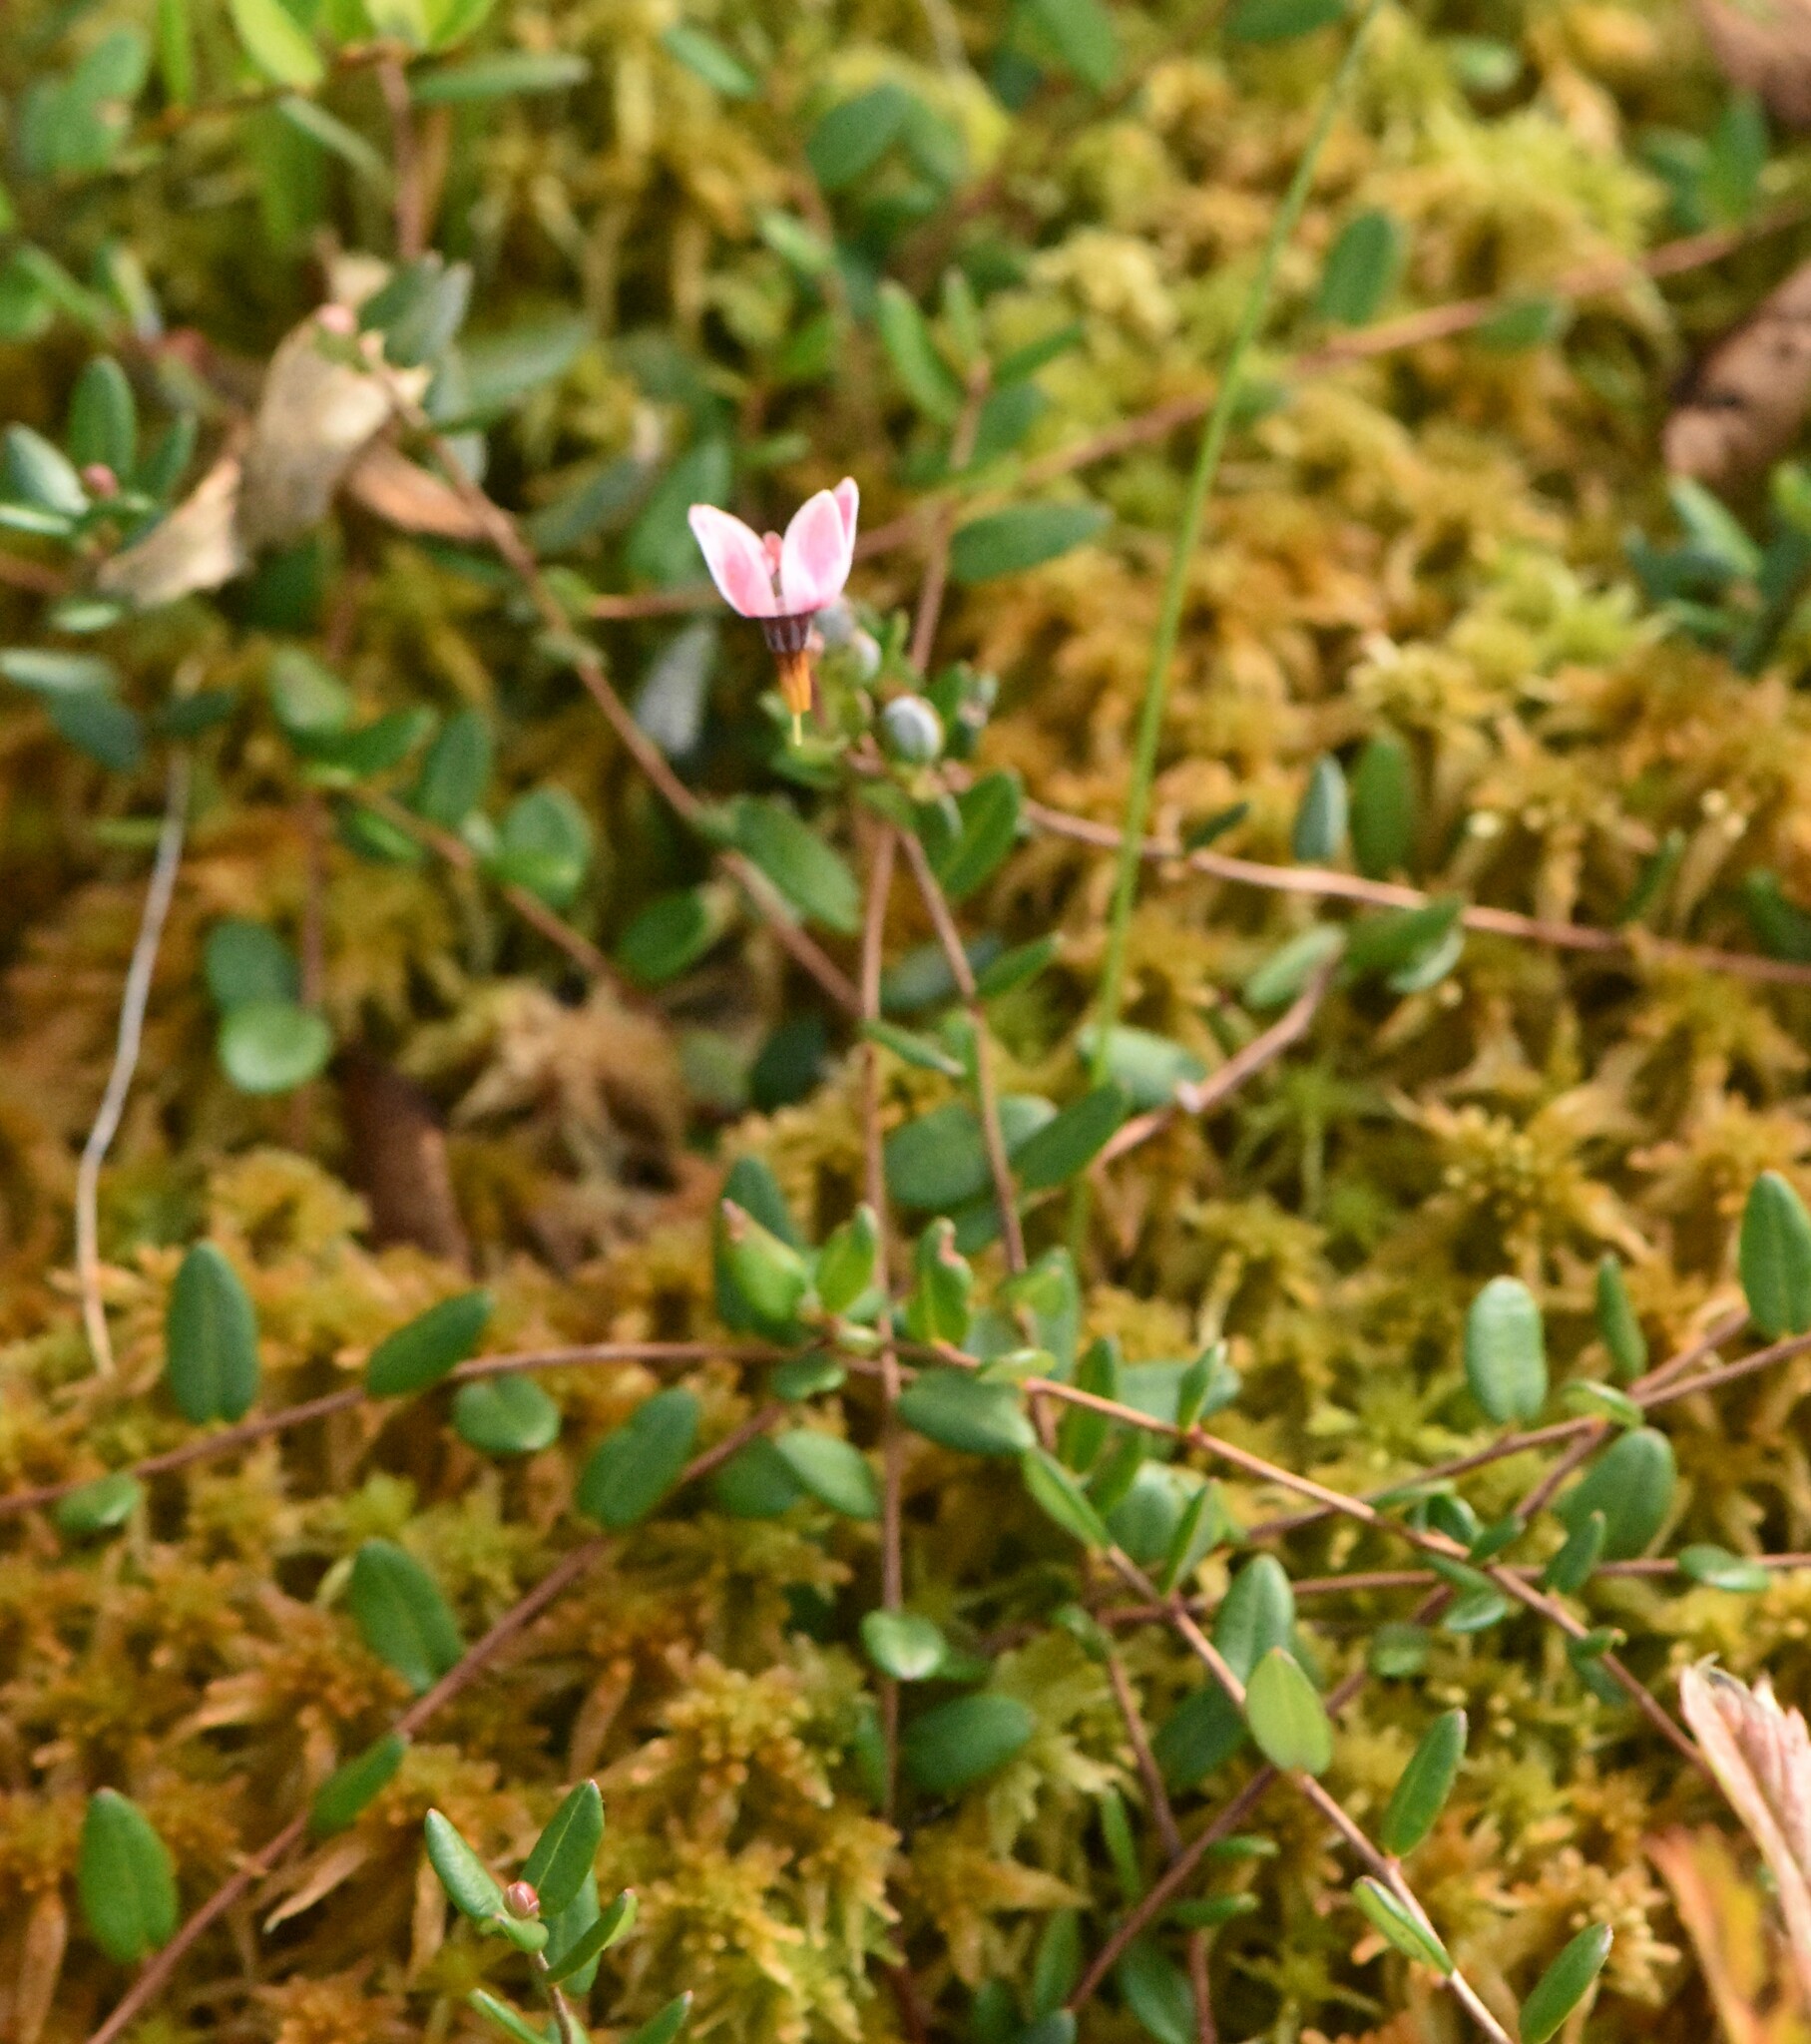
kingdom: Plantae
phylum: Tracheophyta
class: Magnoliopsida
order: Ericales
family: Ericaceae
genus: Vaccinium
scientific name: Vaccinium oxycoccos
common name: Cranberry
